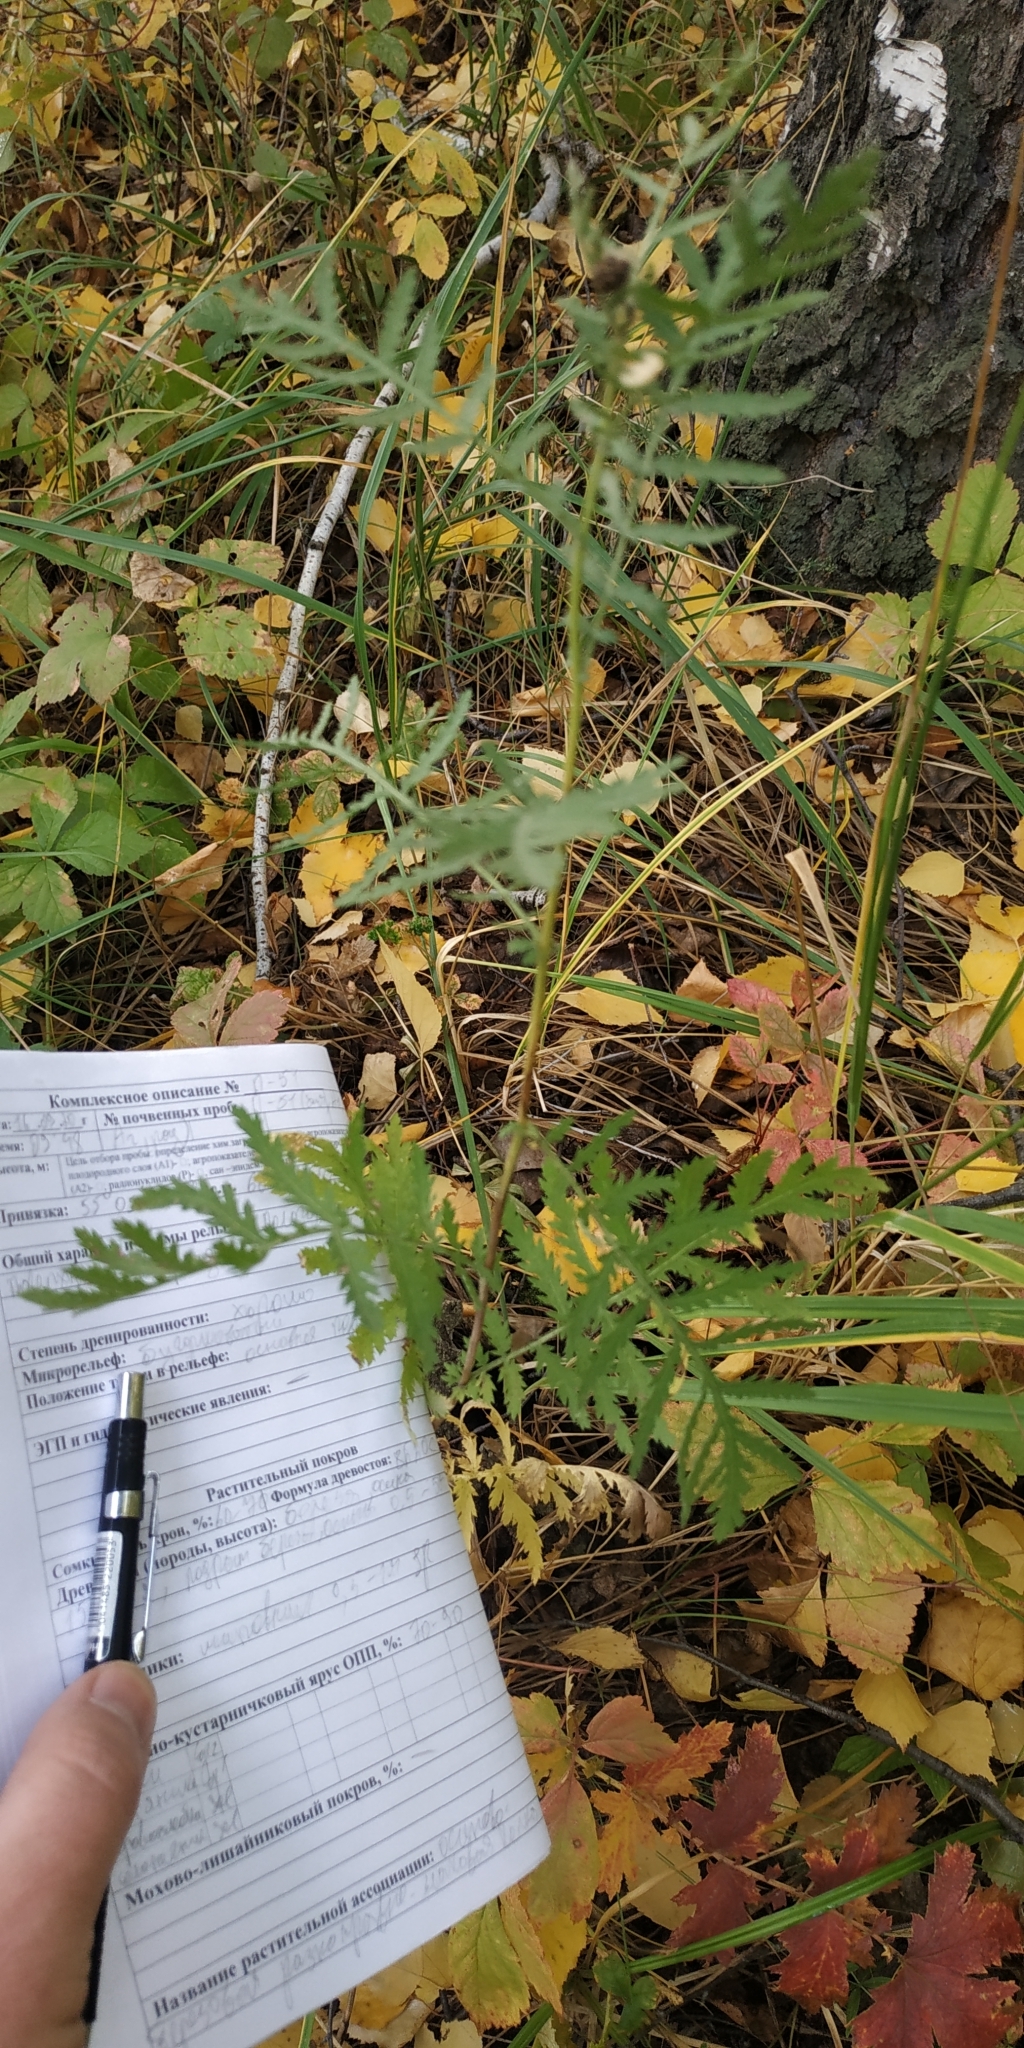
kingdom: Plantae
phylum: Tracheophyta
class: Magnoliopsida
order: Asterales
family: Asteraceae
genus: Tanacetum
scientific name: Tanacetum vulgare
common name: Common tansy
